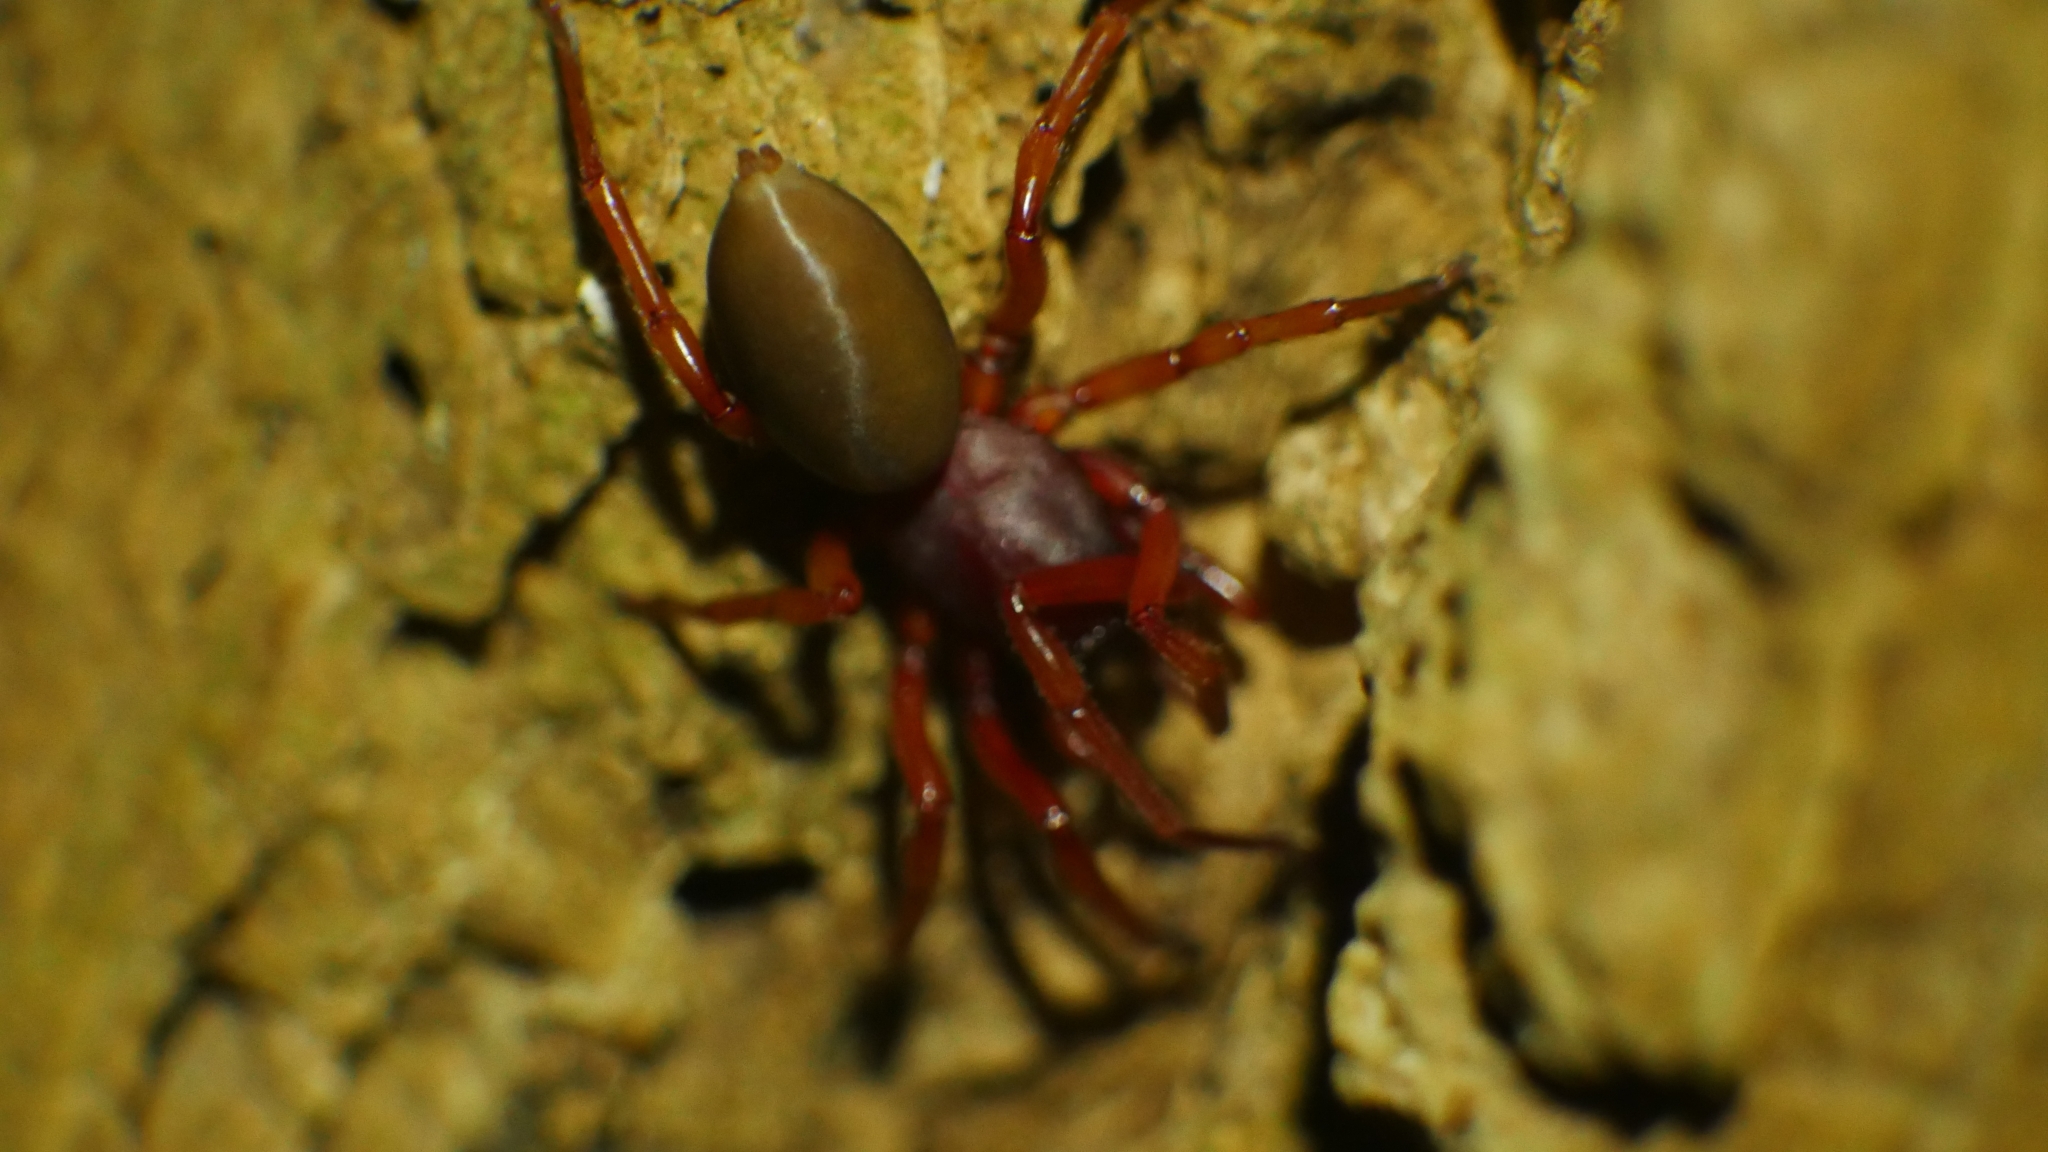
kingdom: Animalia
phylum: Arthropoda
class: Arachnida
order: Araneae
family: Dysderidae
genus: Dysdera
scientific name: Dysdera crocata
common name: Woodlouse spider
